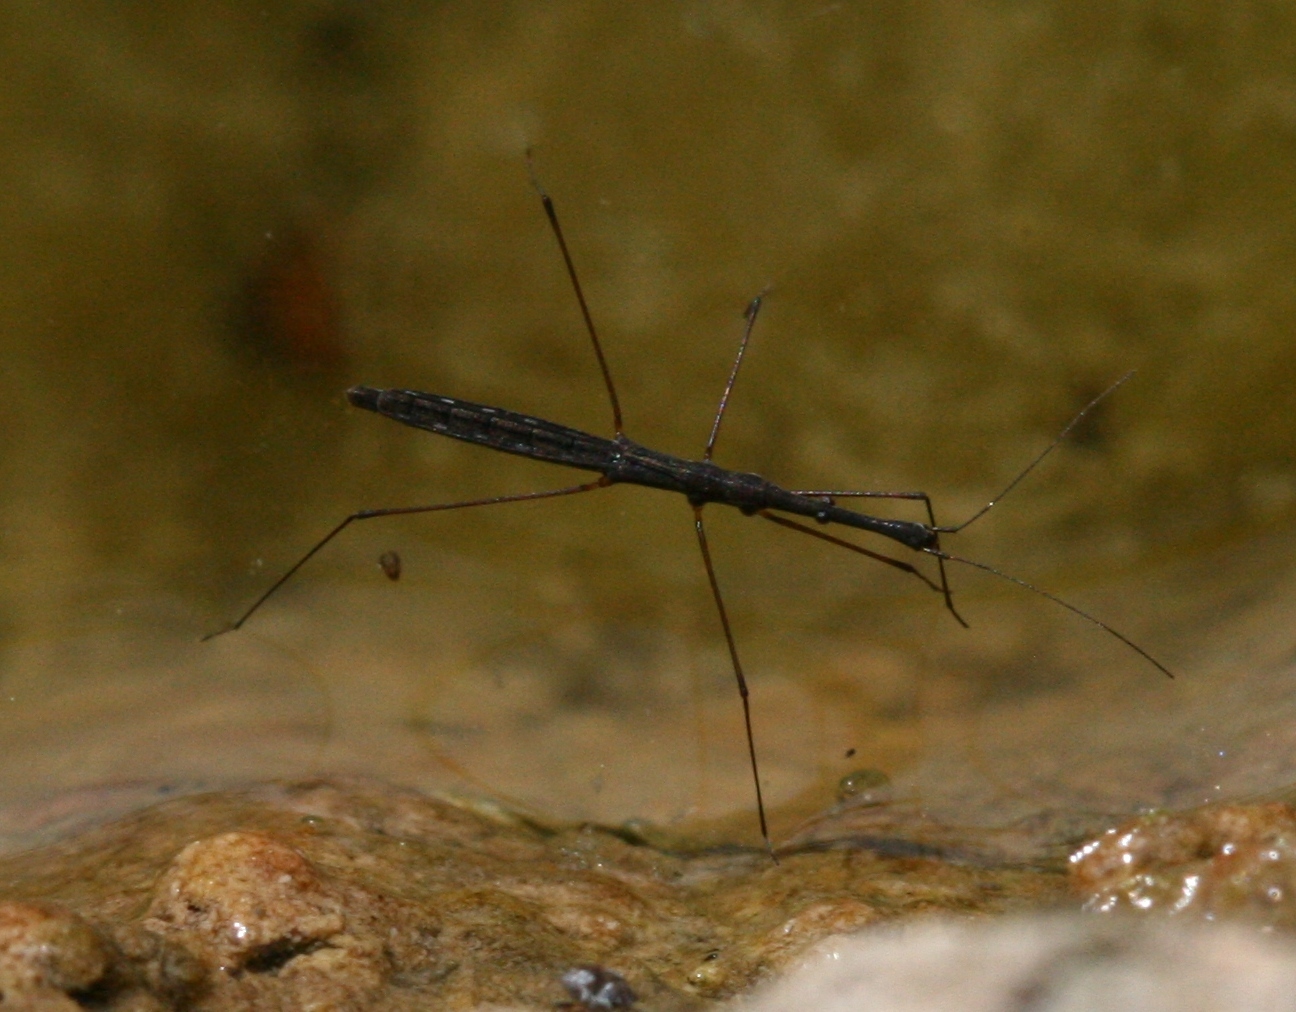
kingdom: Animalia
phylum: Arthropoda
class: Insecta
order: Hemiptera
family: Hydrometridae
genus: Hydrometra
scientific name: Hydrometra stagnorum
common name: Water measurer
